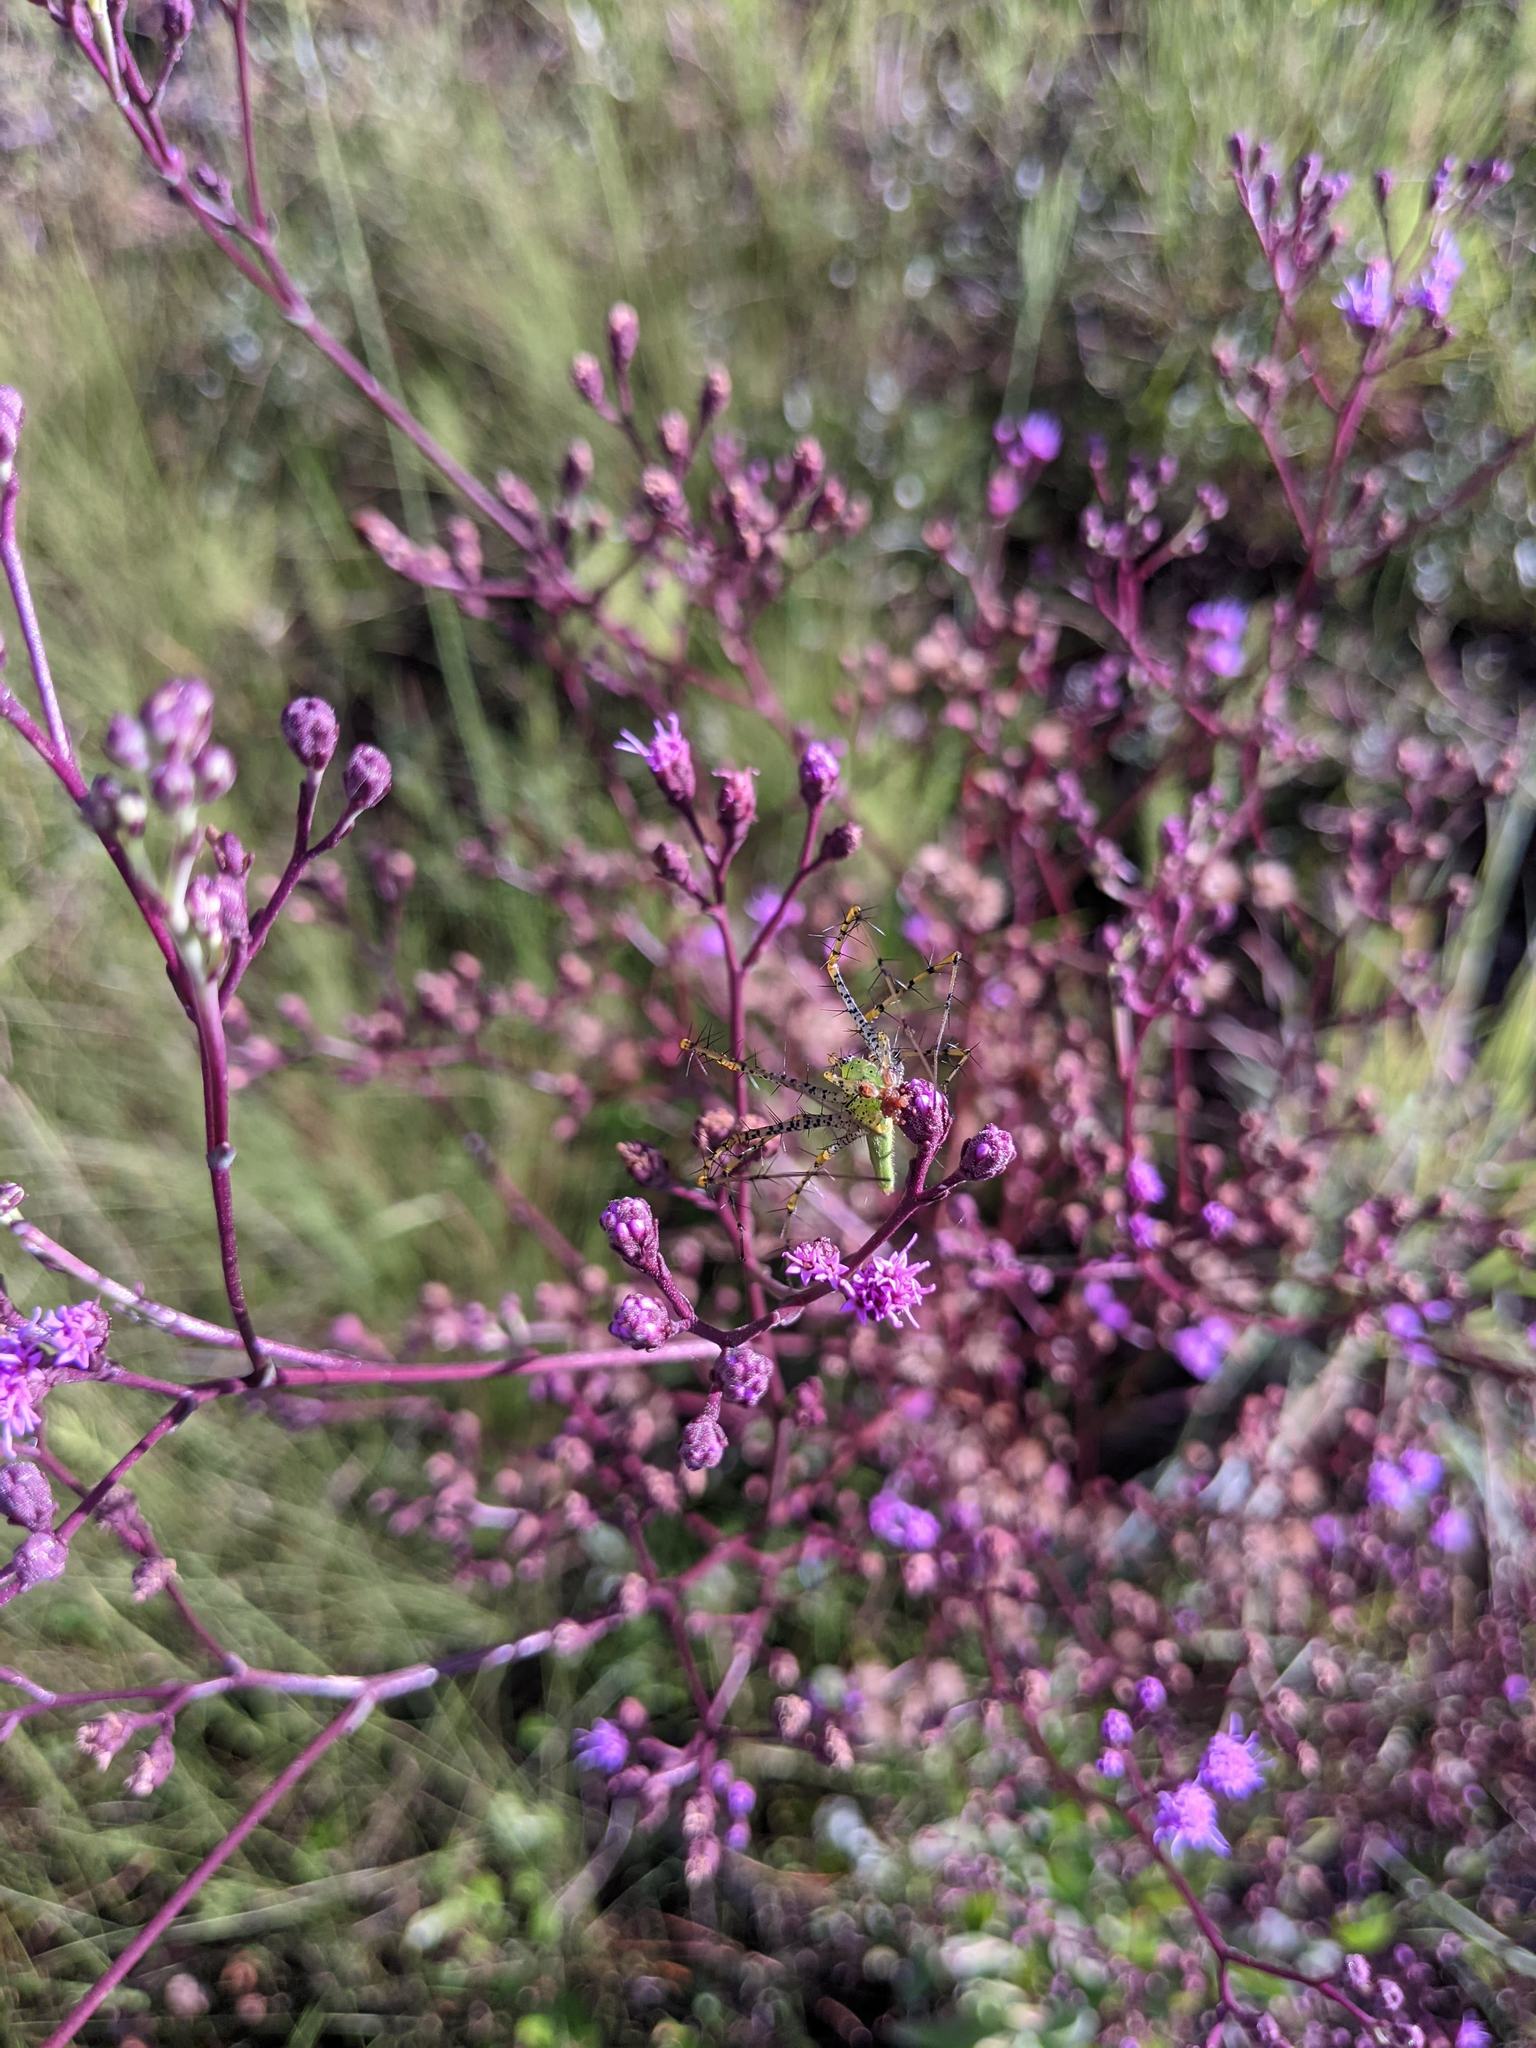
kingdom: Plantae
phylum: Tracheophyta
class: Magnoliopsida
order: Asterales
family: Asteraceae
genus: Carphephorus
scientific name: Carphephorus
